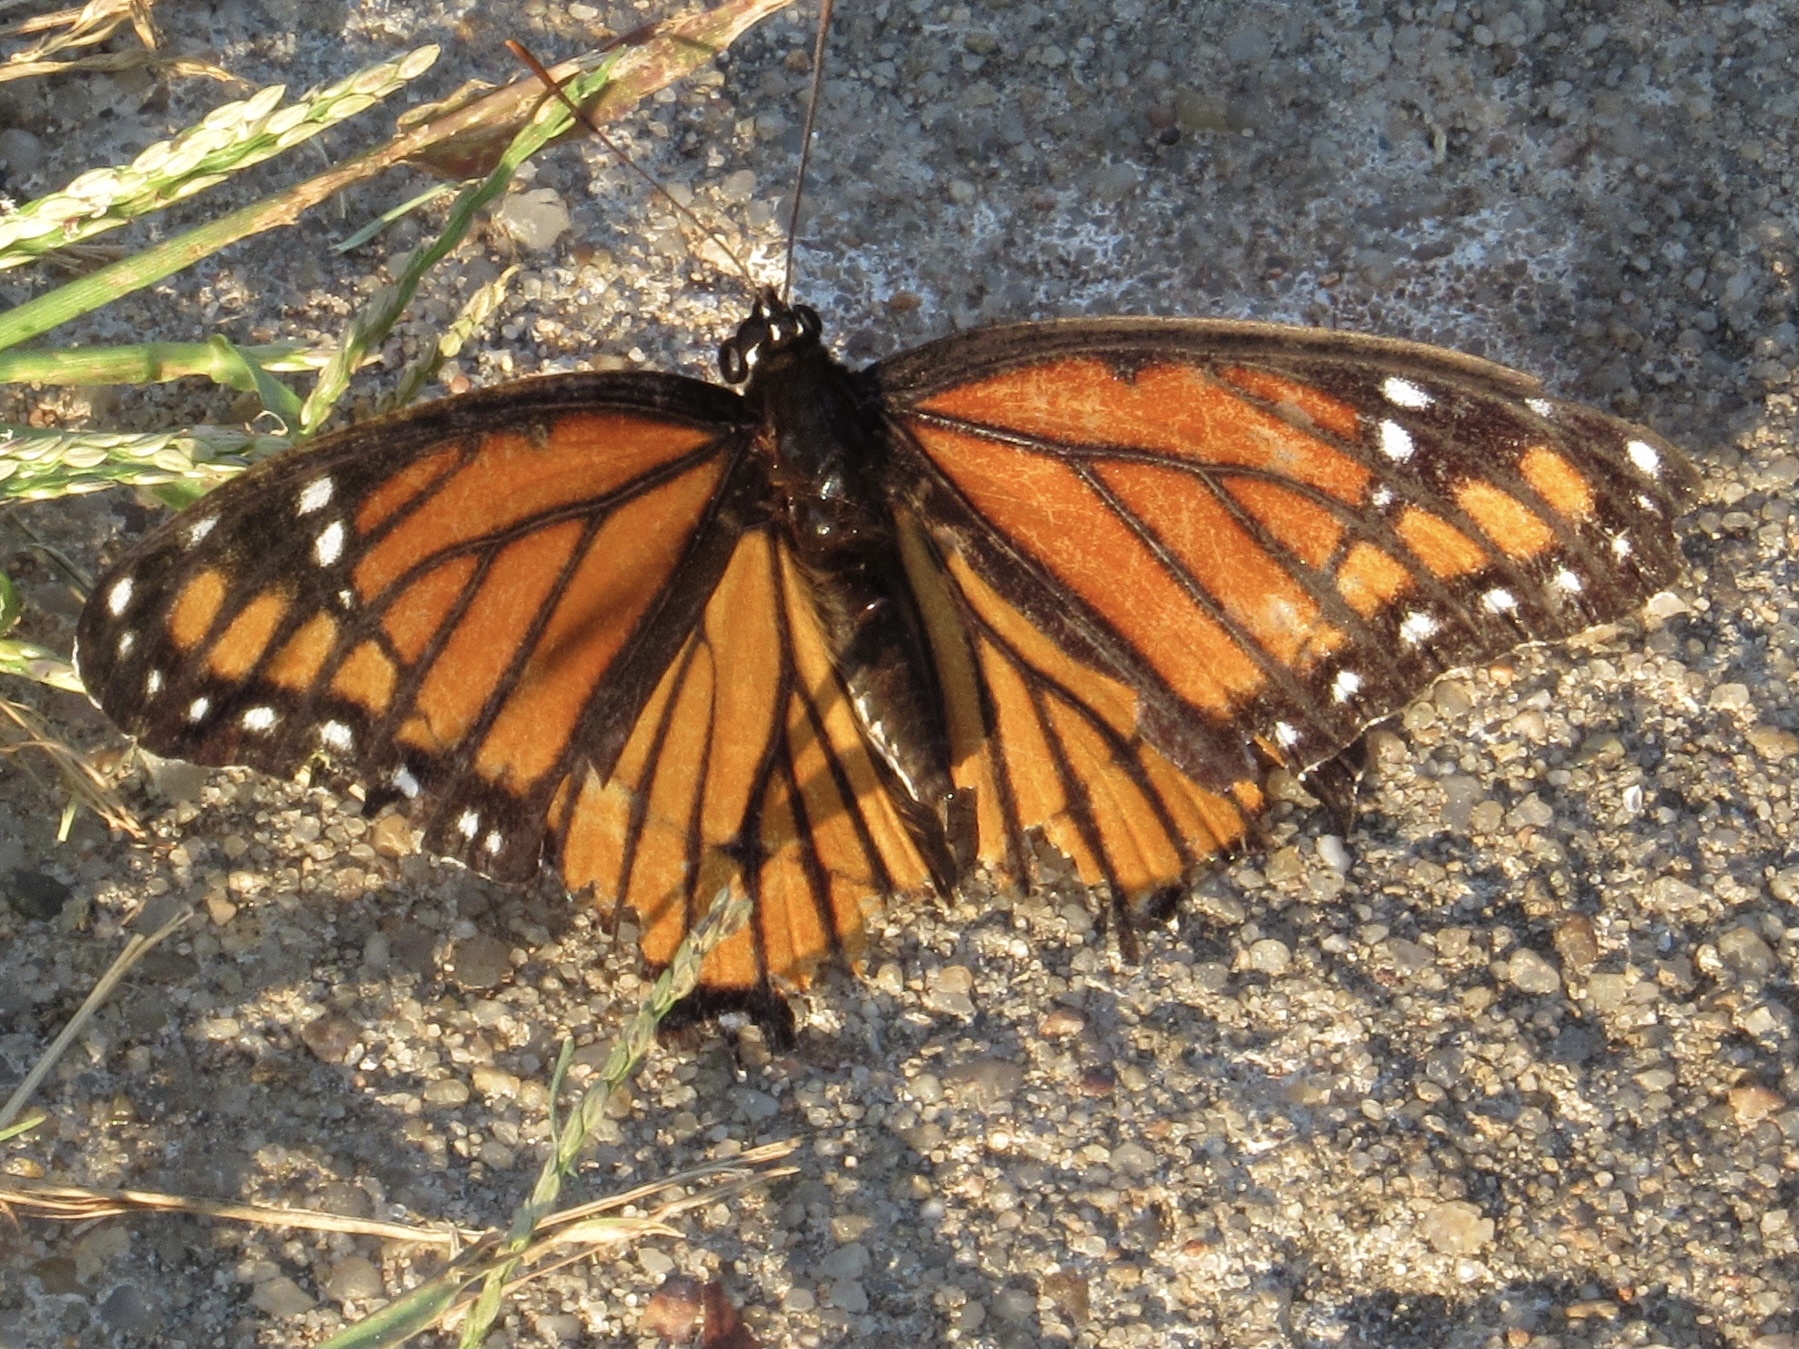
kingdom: Animalia
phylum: Arthropoda
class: Insecta
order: Lepidoptera
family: Nymphalidae
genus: Limenitis
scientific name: Limenitis archippus
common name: Viceroy
